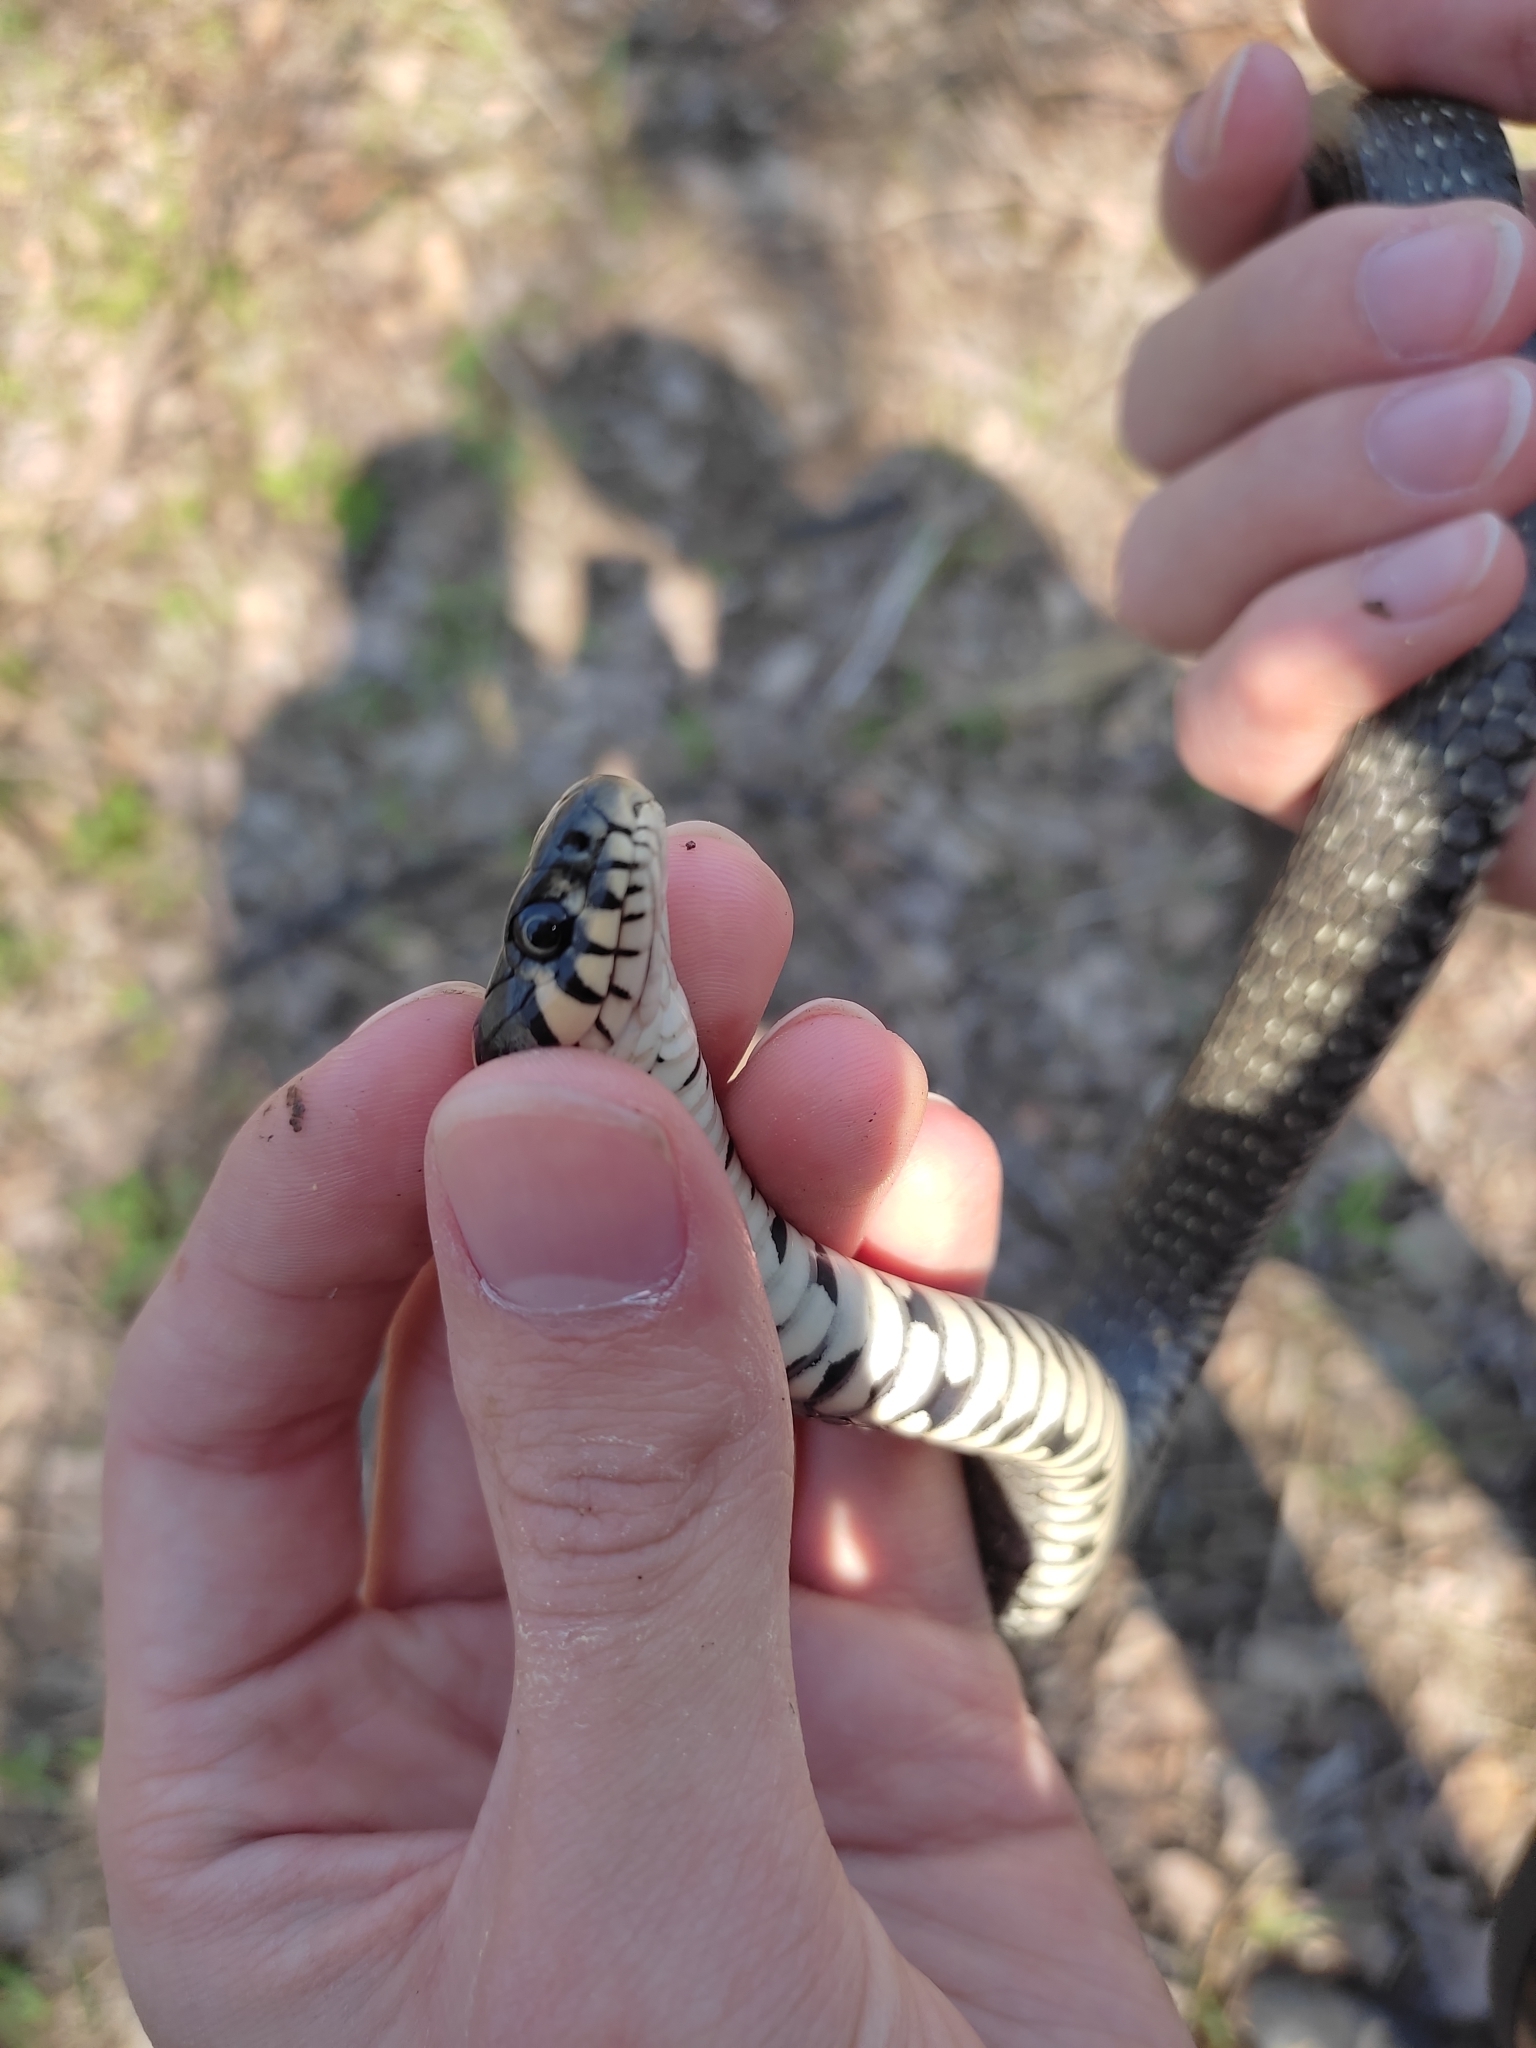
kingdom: Animalia
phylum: Chordata
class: Squamata
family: Colubridae
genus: Natrix
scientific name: Natrix natrix
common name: Grass snake
